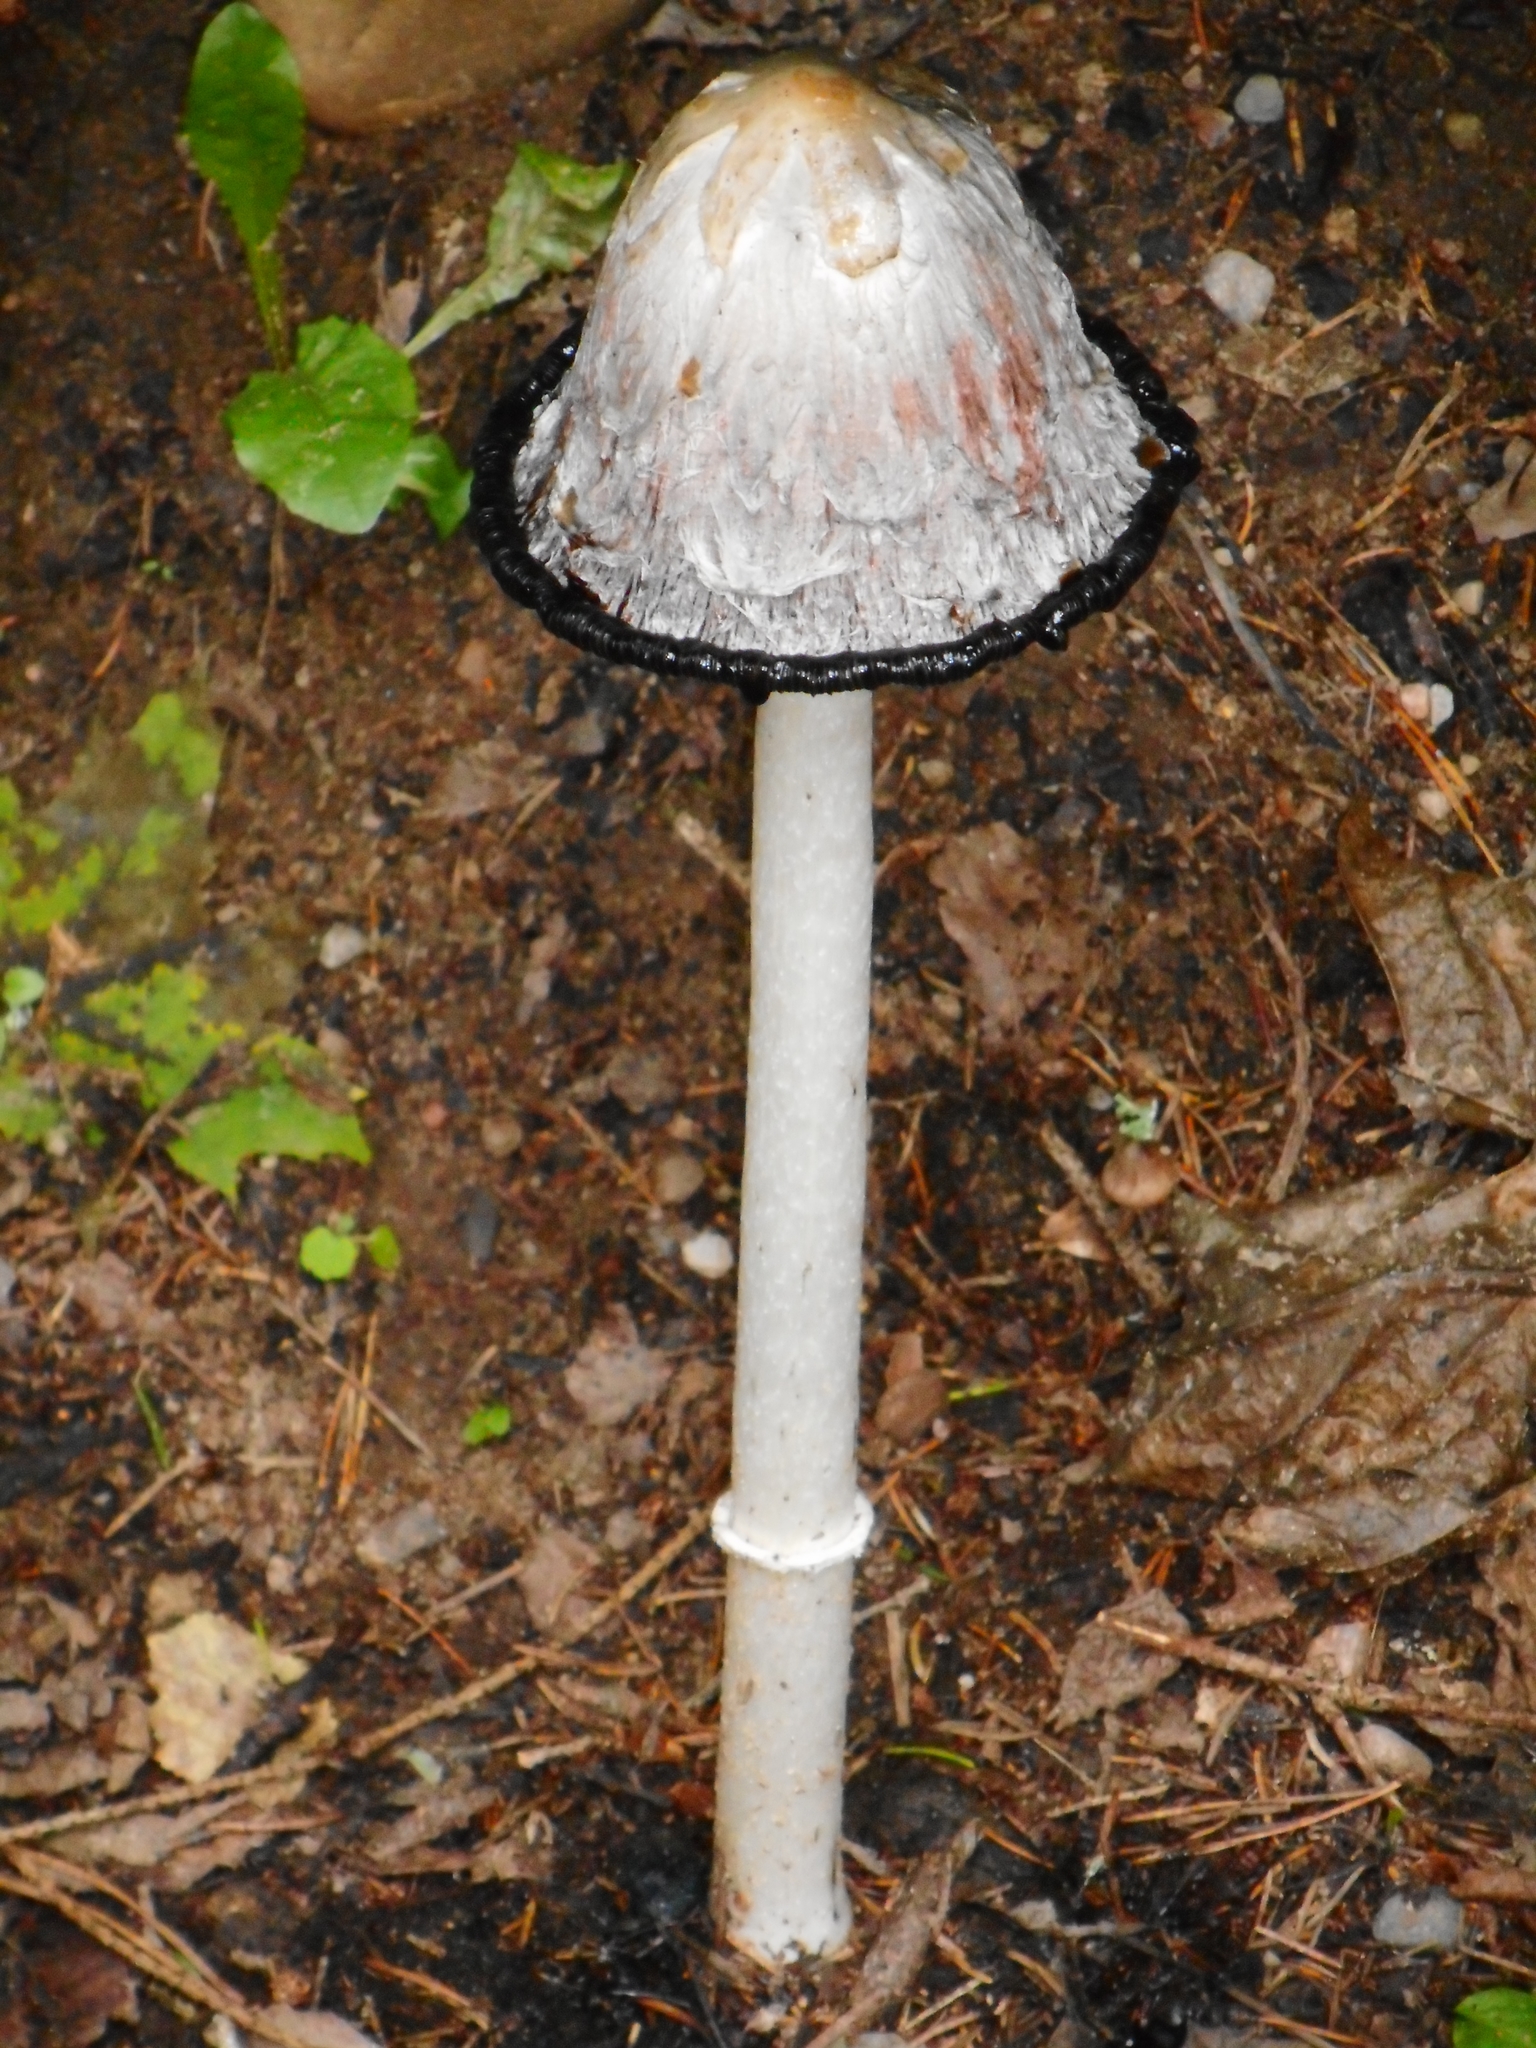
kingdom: Fungi
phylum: Basidiomycota
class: Agaricomycetes
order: Agaricales
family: Agaricaceae
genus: Coprinus
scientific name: Coprinus comatus
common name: Lawyer's wig
